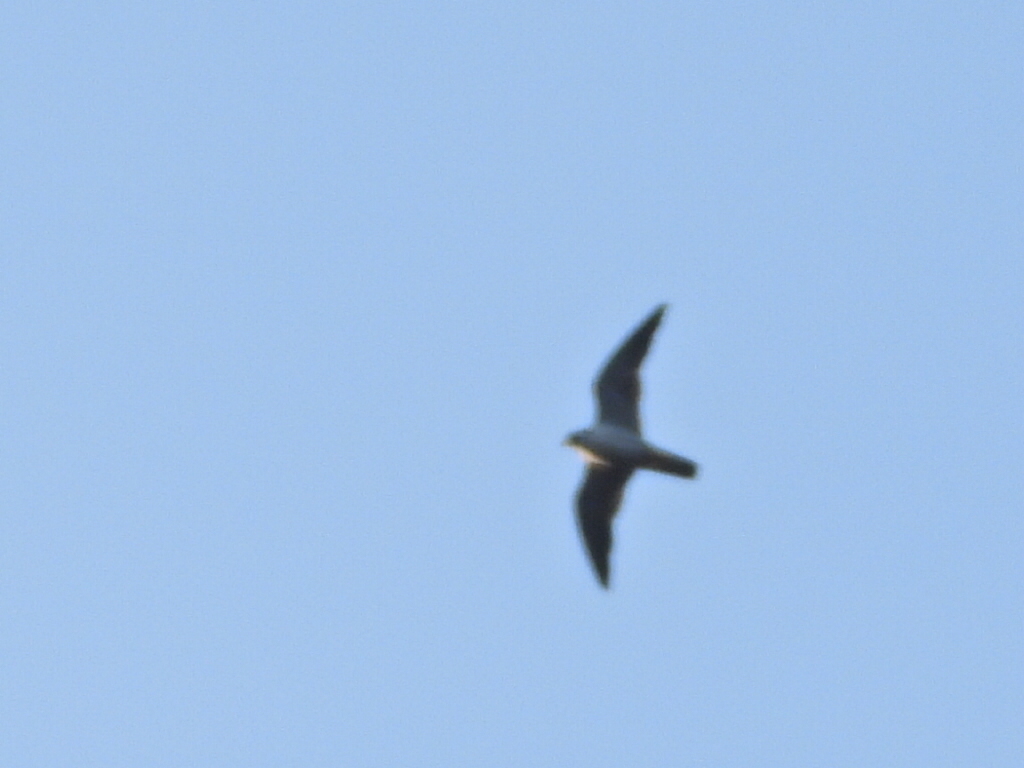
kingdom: Animalia
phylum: Chordata
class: Aves
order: Falconiformes
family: Falconidae
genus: Falco
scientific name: Falco peregrinus
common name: Peregrine falcon
